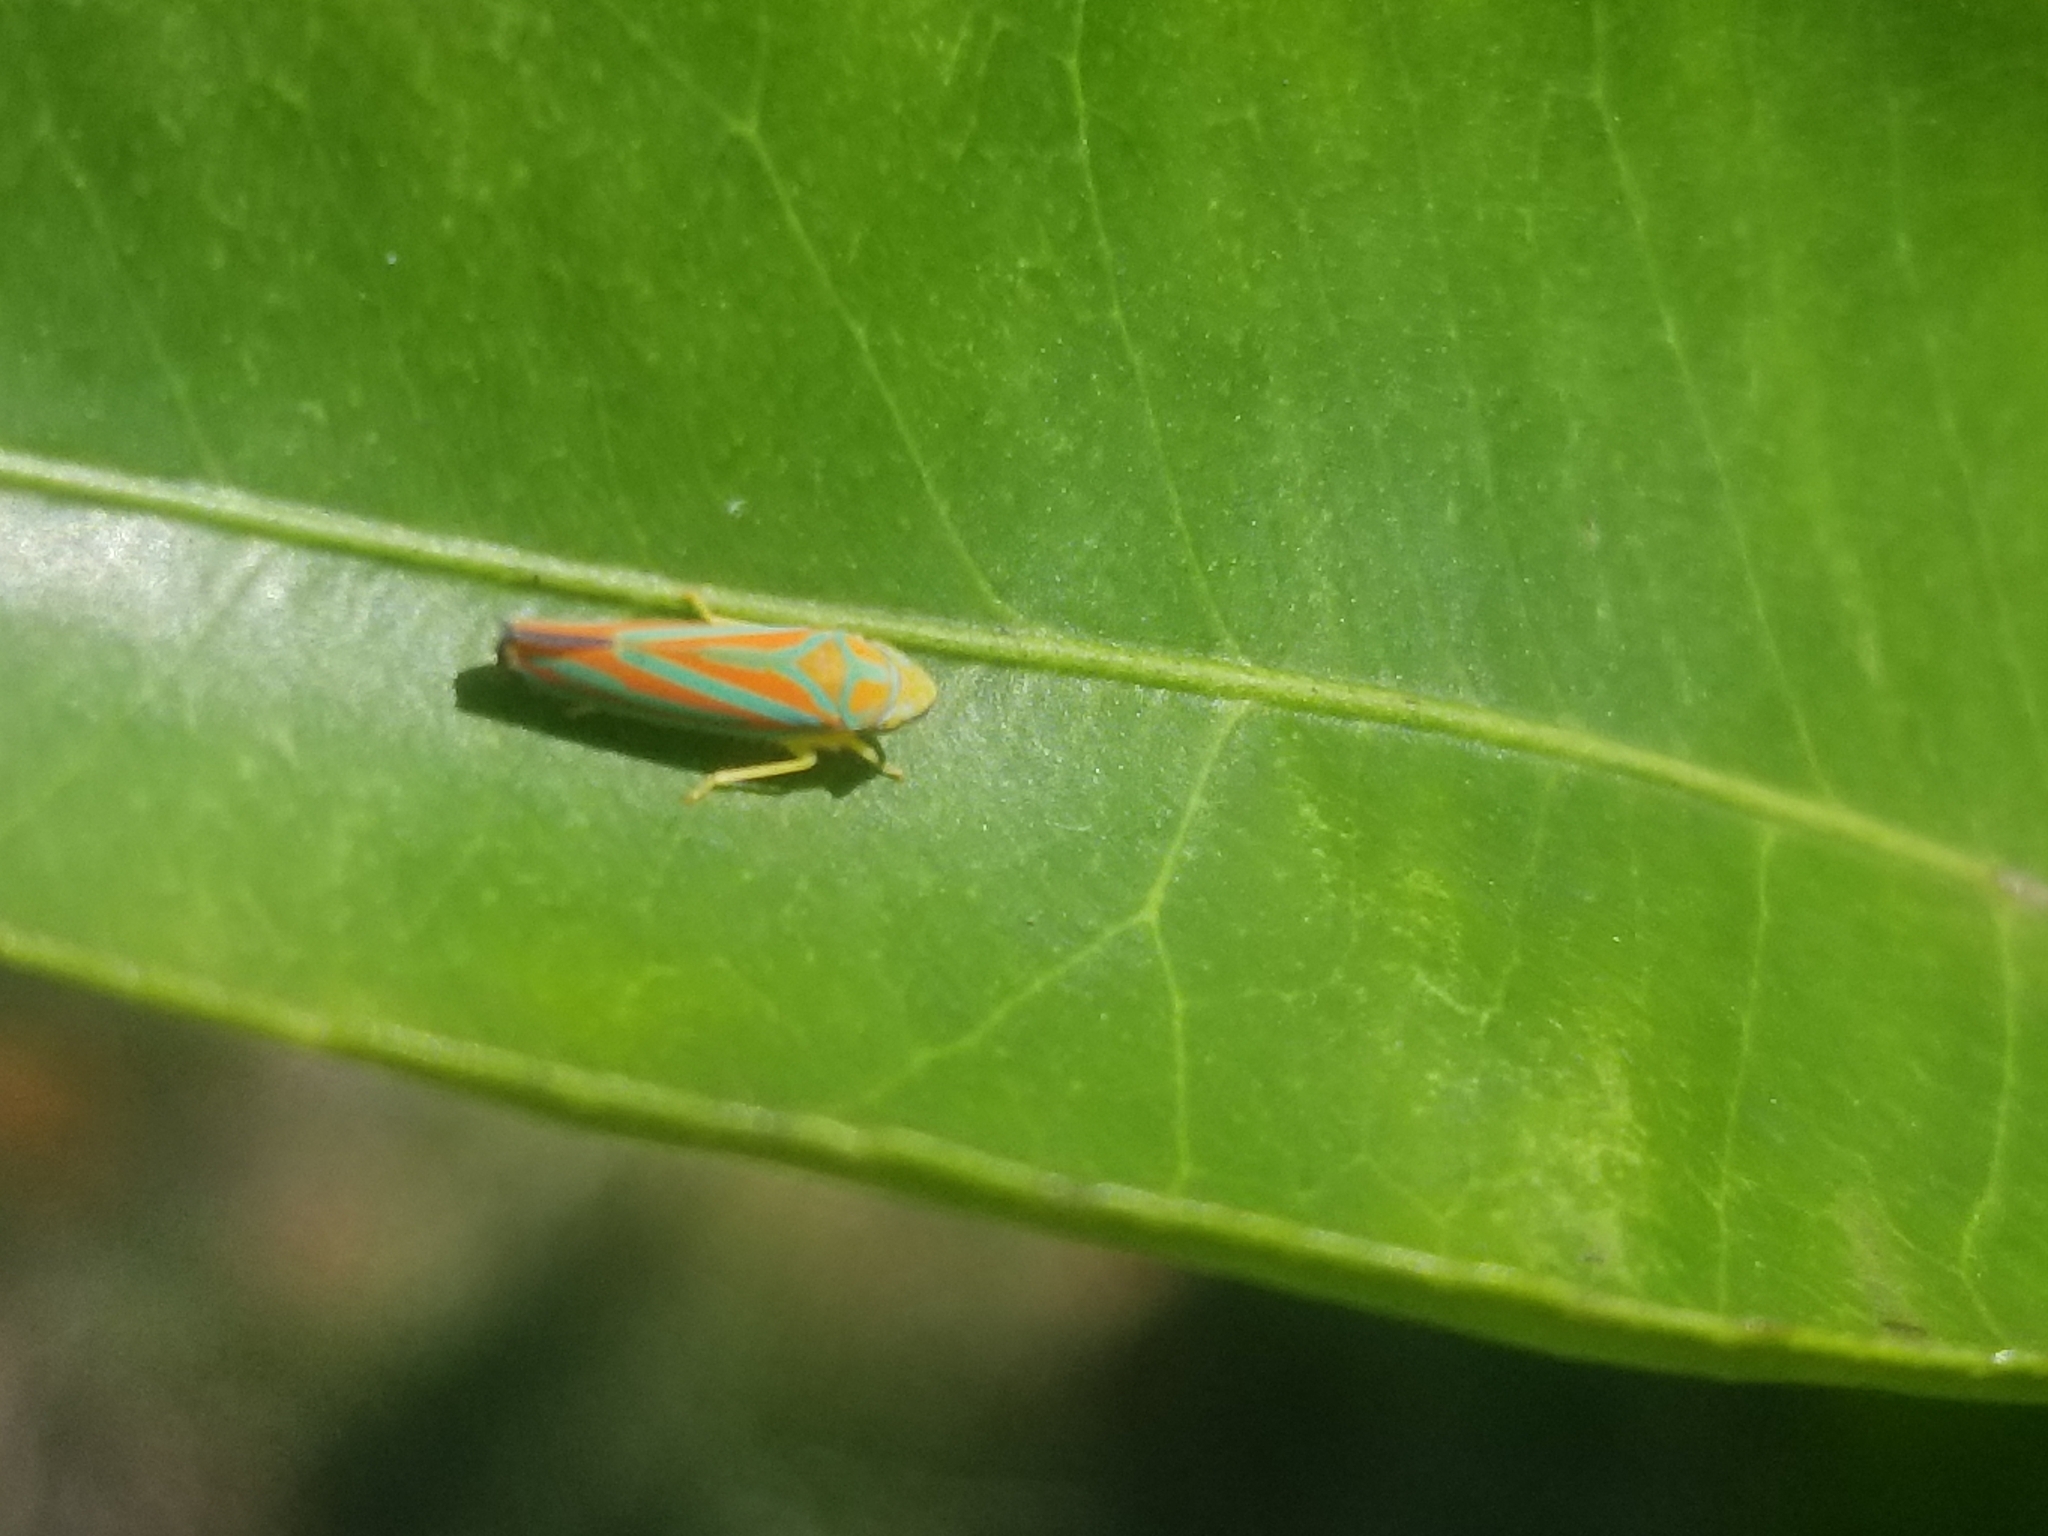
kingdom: Animalia
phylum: Arthropoda
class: Insecta
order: Hemiptera
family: Cicadellidae
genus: Graphocephala
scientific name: Graphocephala coccinea
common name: Candy-striped leafhopper
